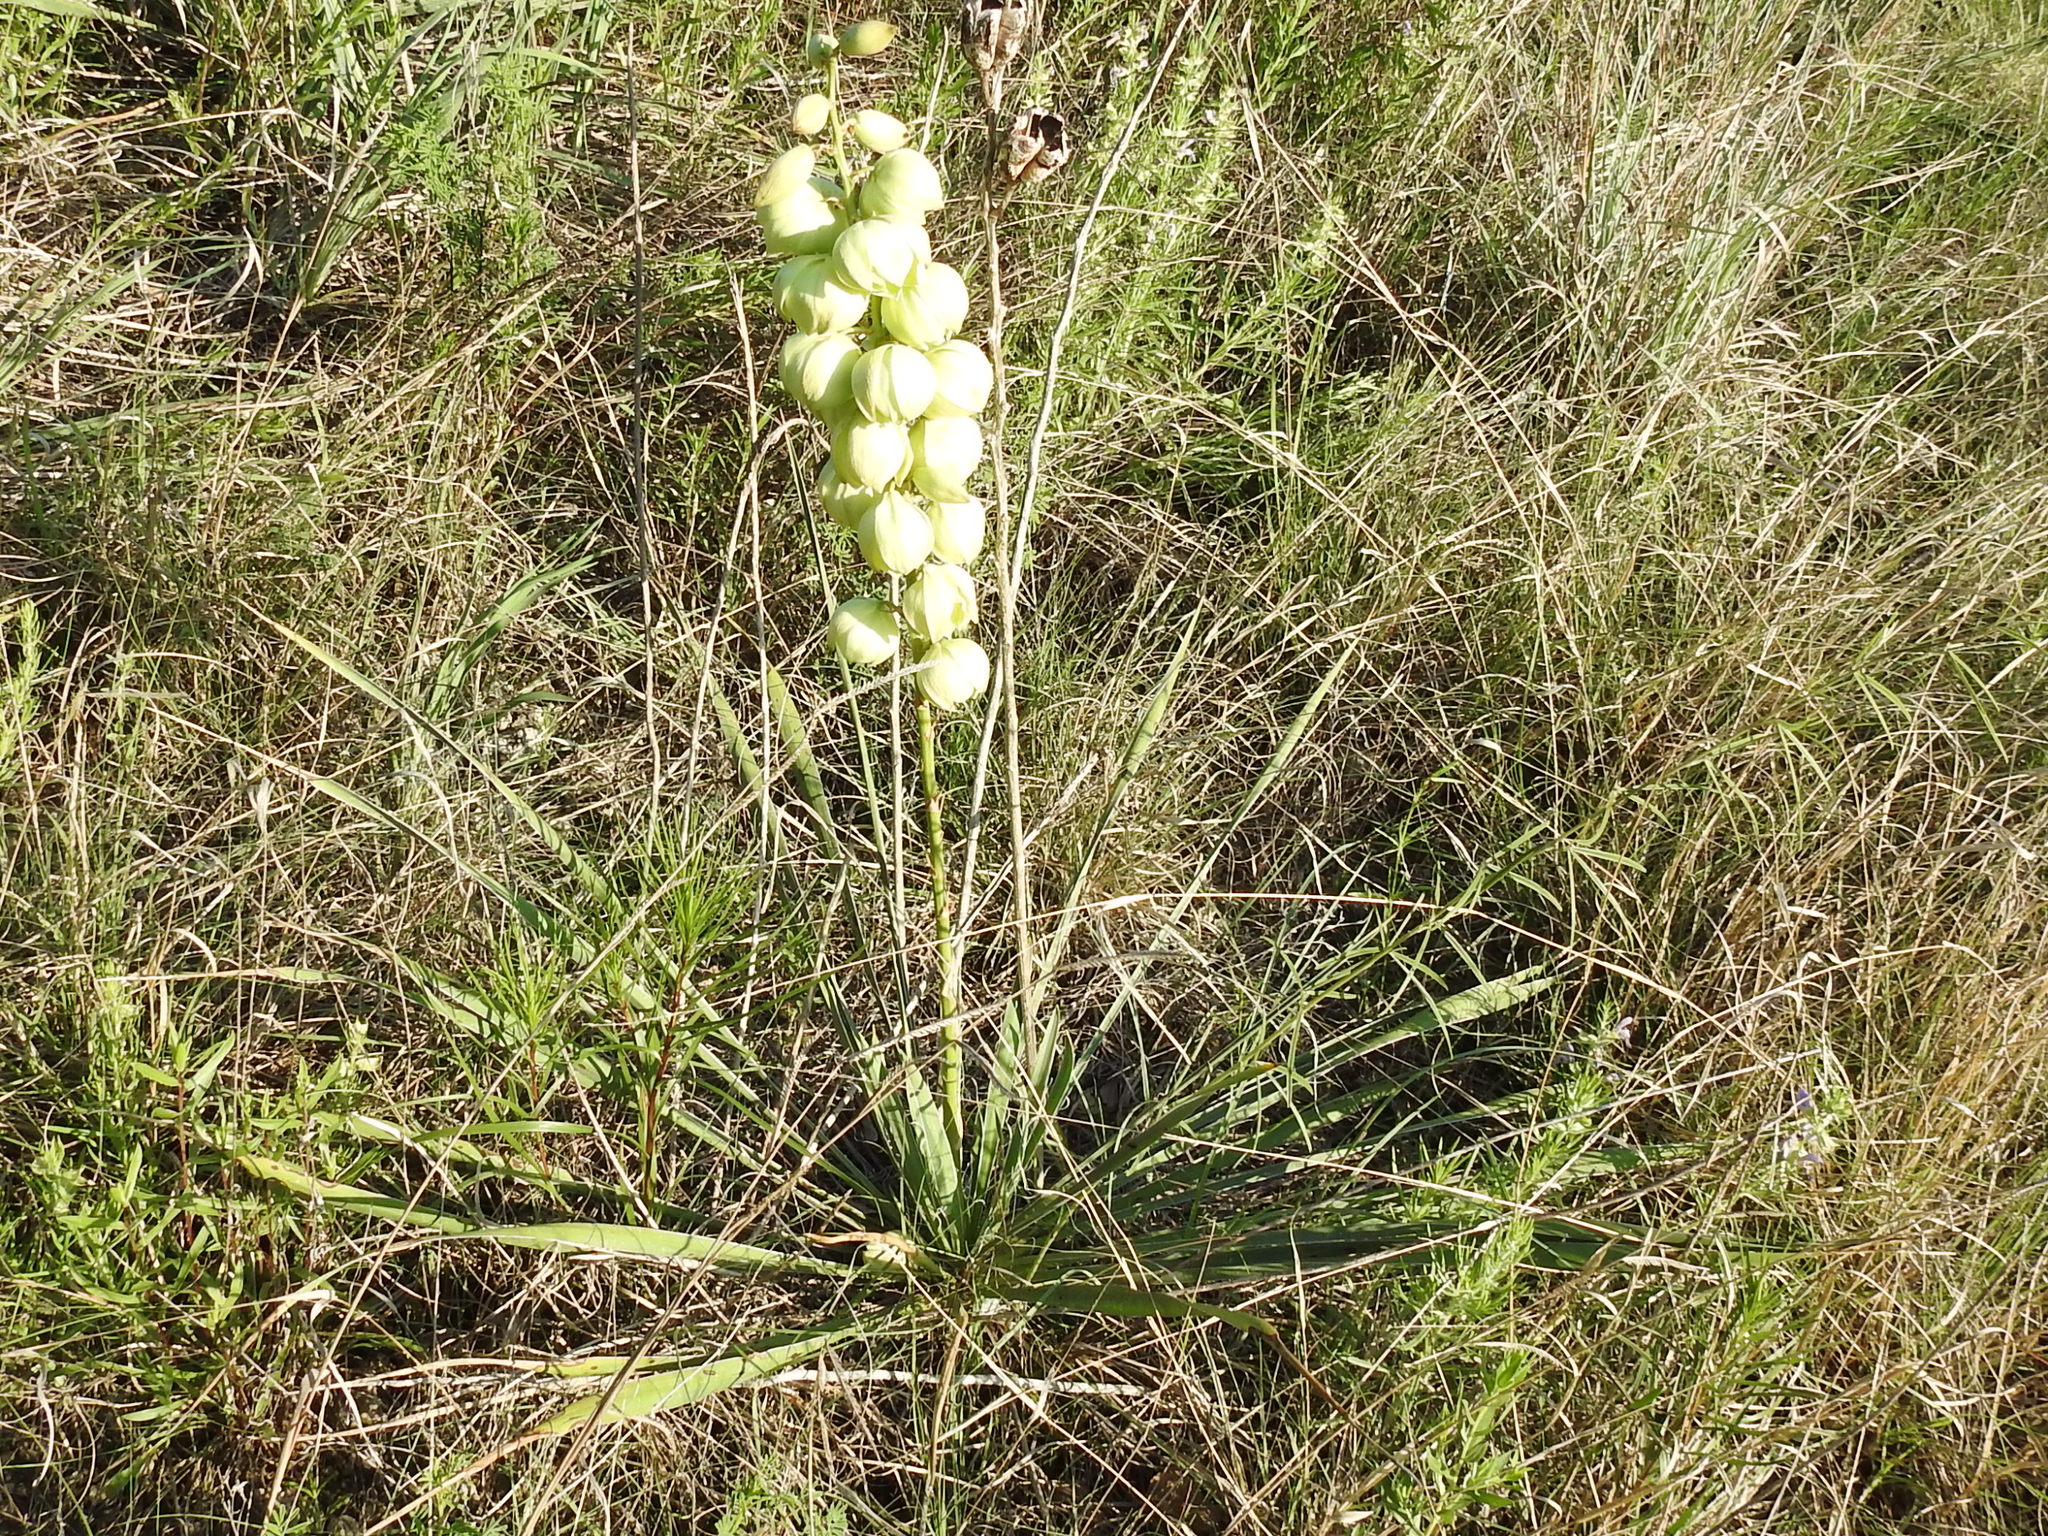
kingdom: Plantae
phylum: Tracheophyta
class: Liliopsida
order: Asparagales
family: Asparagaceae
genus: Yucca
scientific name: Yucca arkansana
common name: Arkansas yucca
